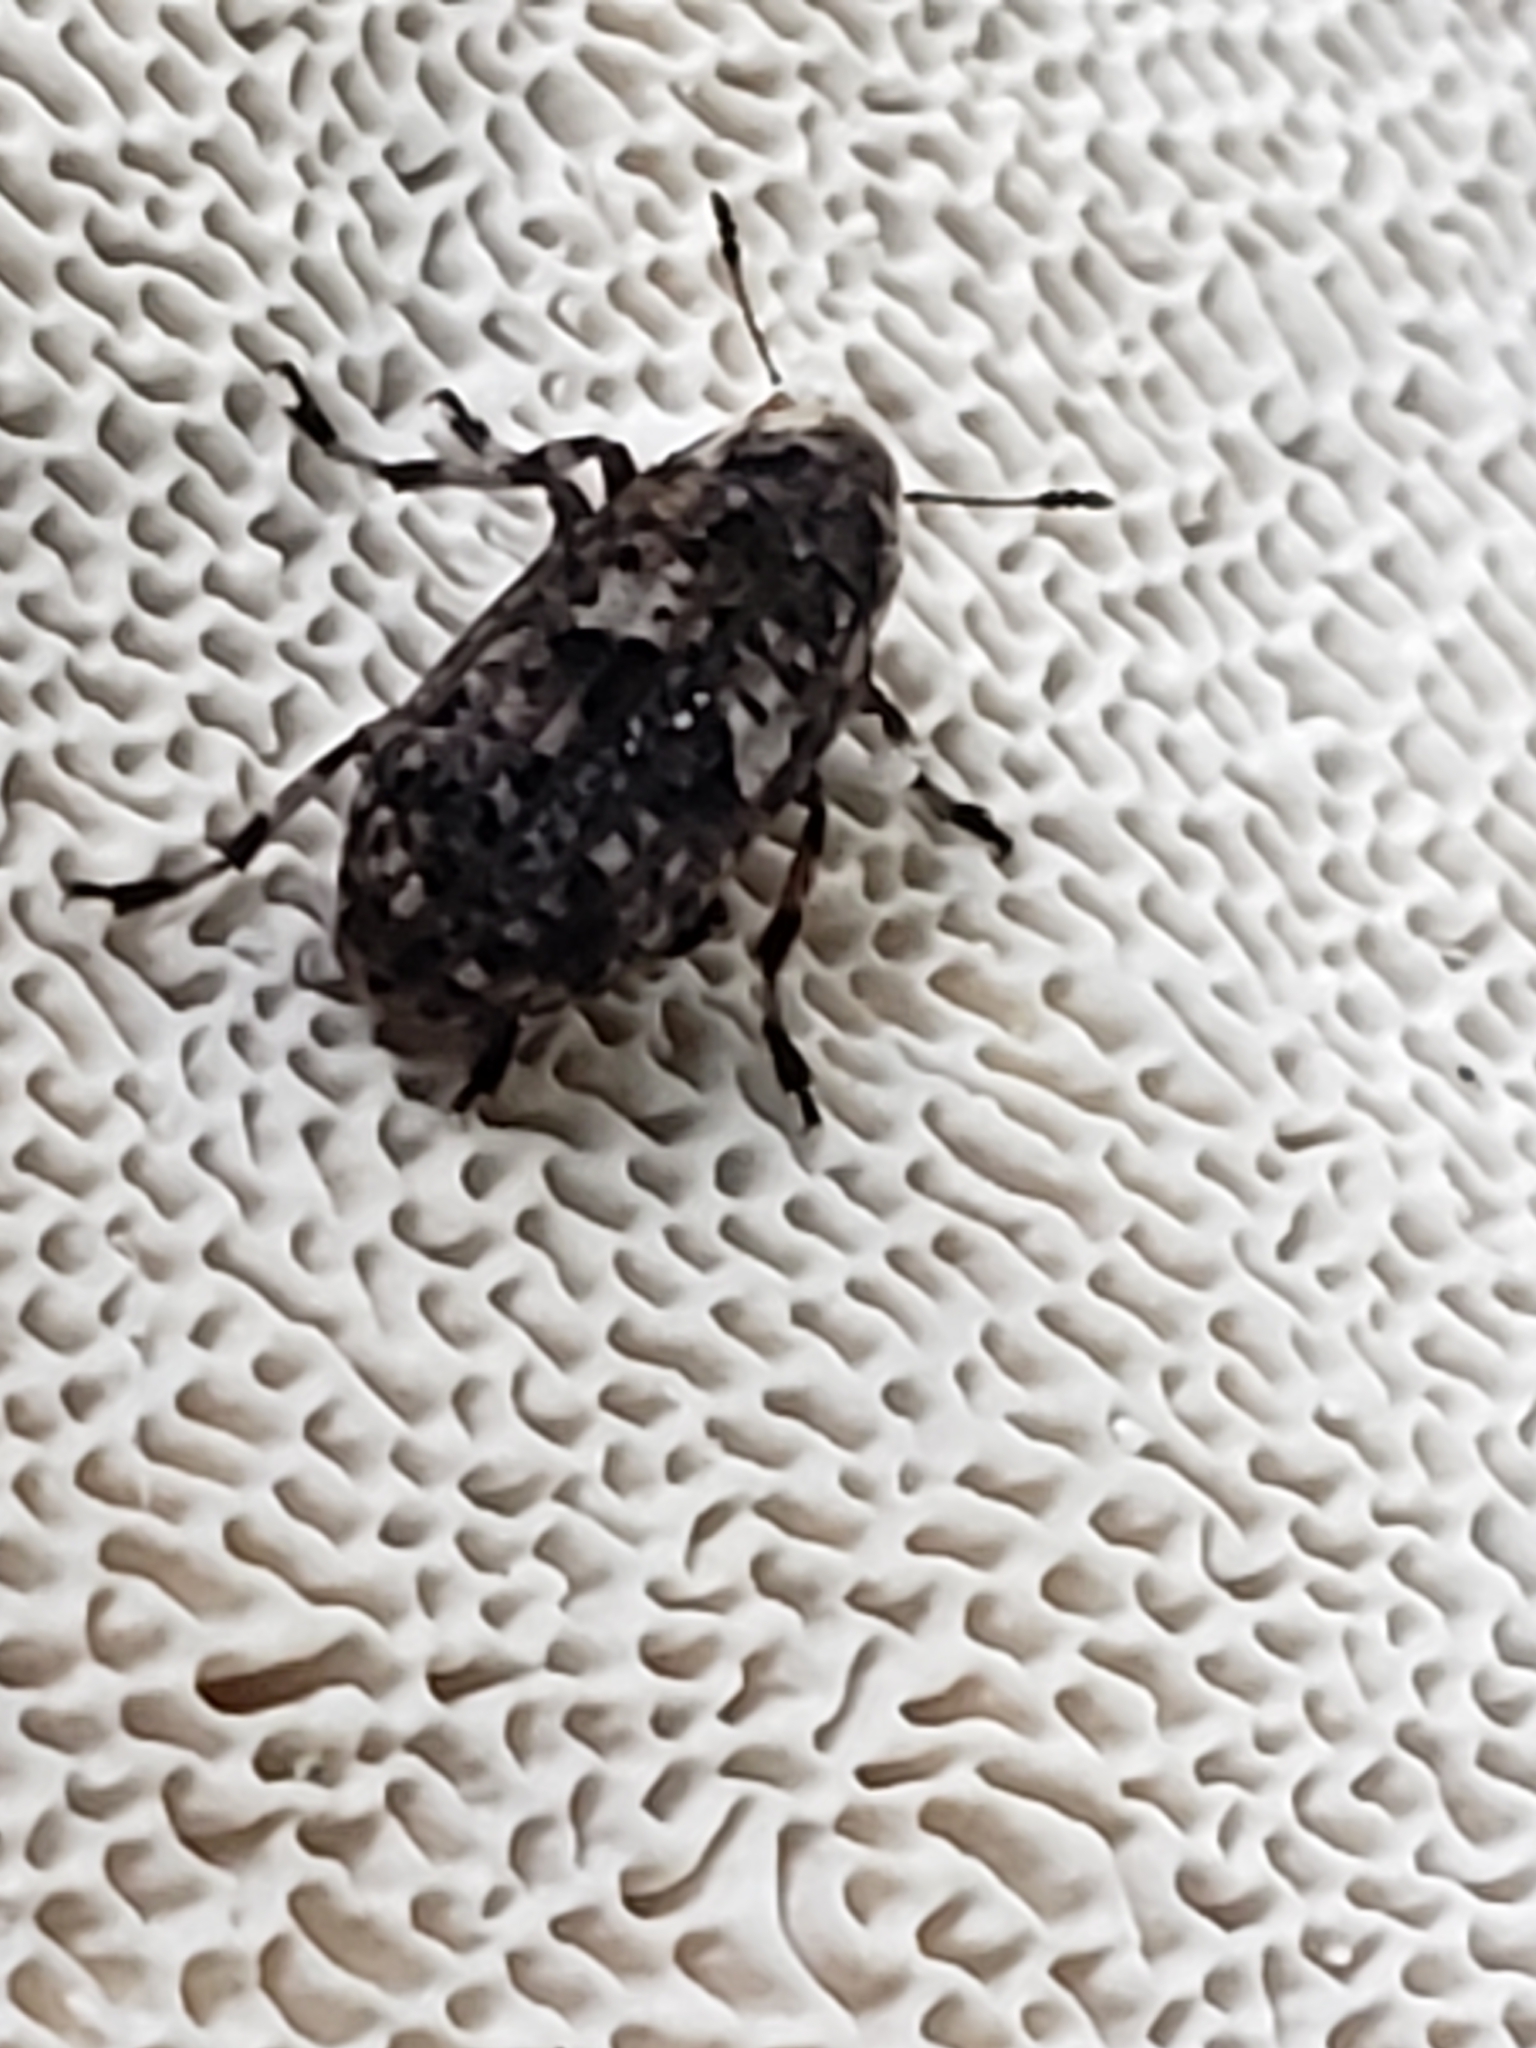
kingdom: Animalia
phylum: Arthropoda
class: Insecta
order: Coleoptera
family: Anthribidae
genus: Euparius
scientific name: Euparius marmoreus
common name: Marbled fungus weevil
